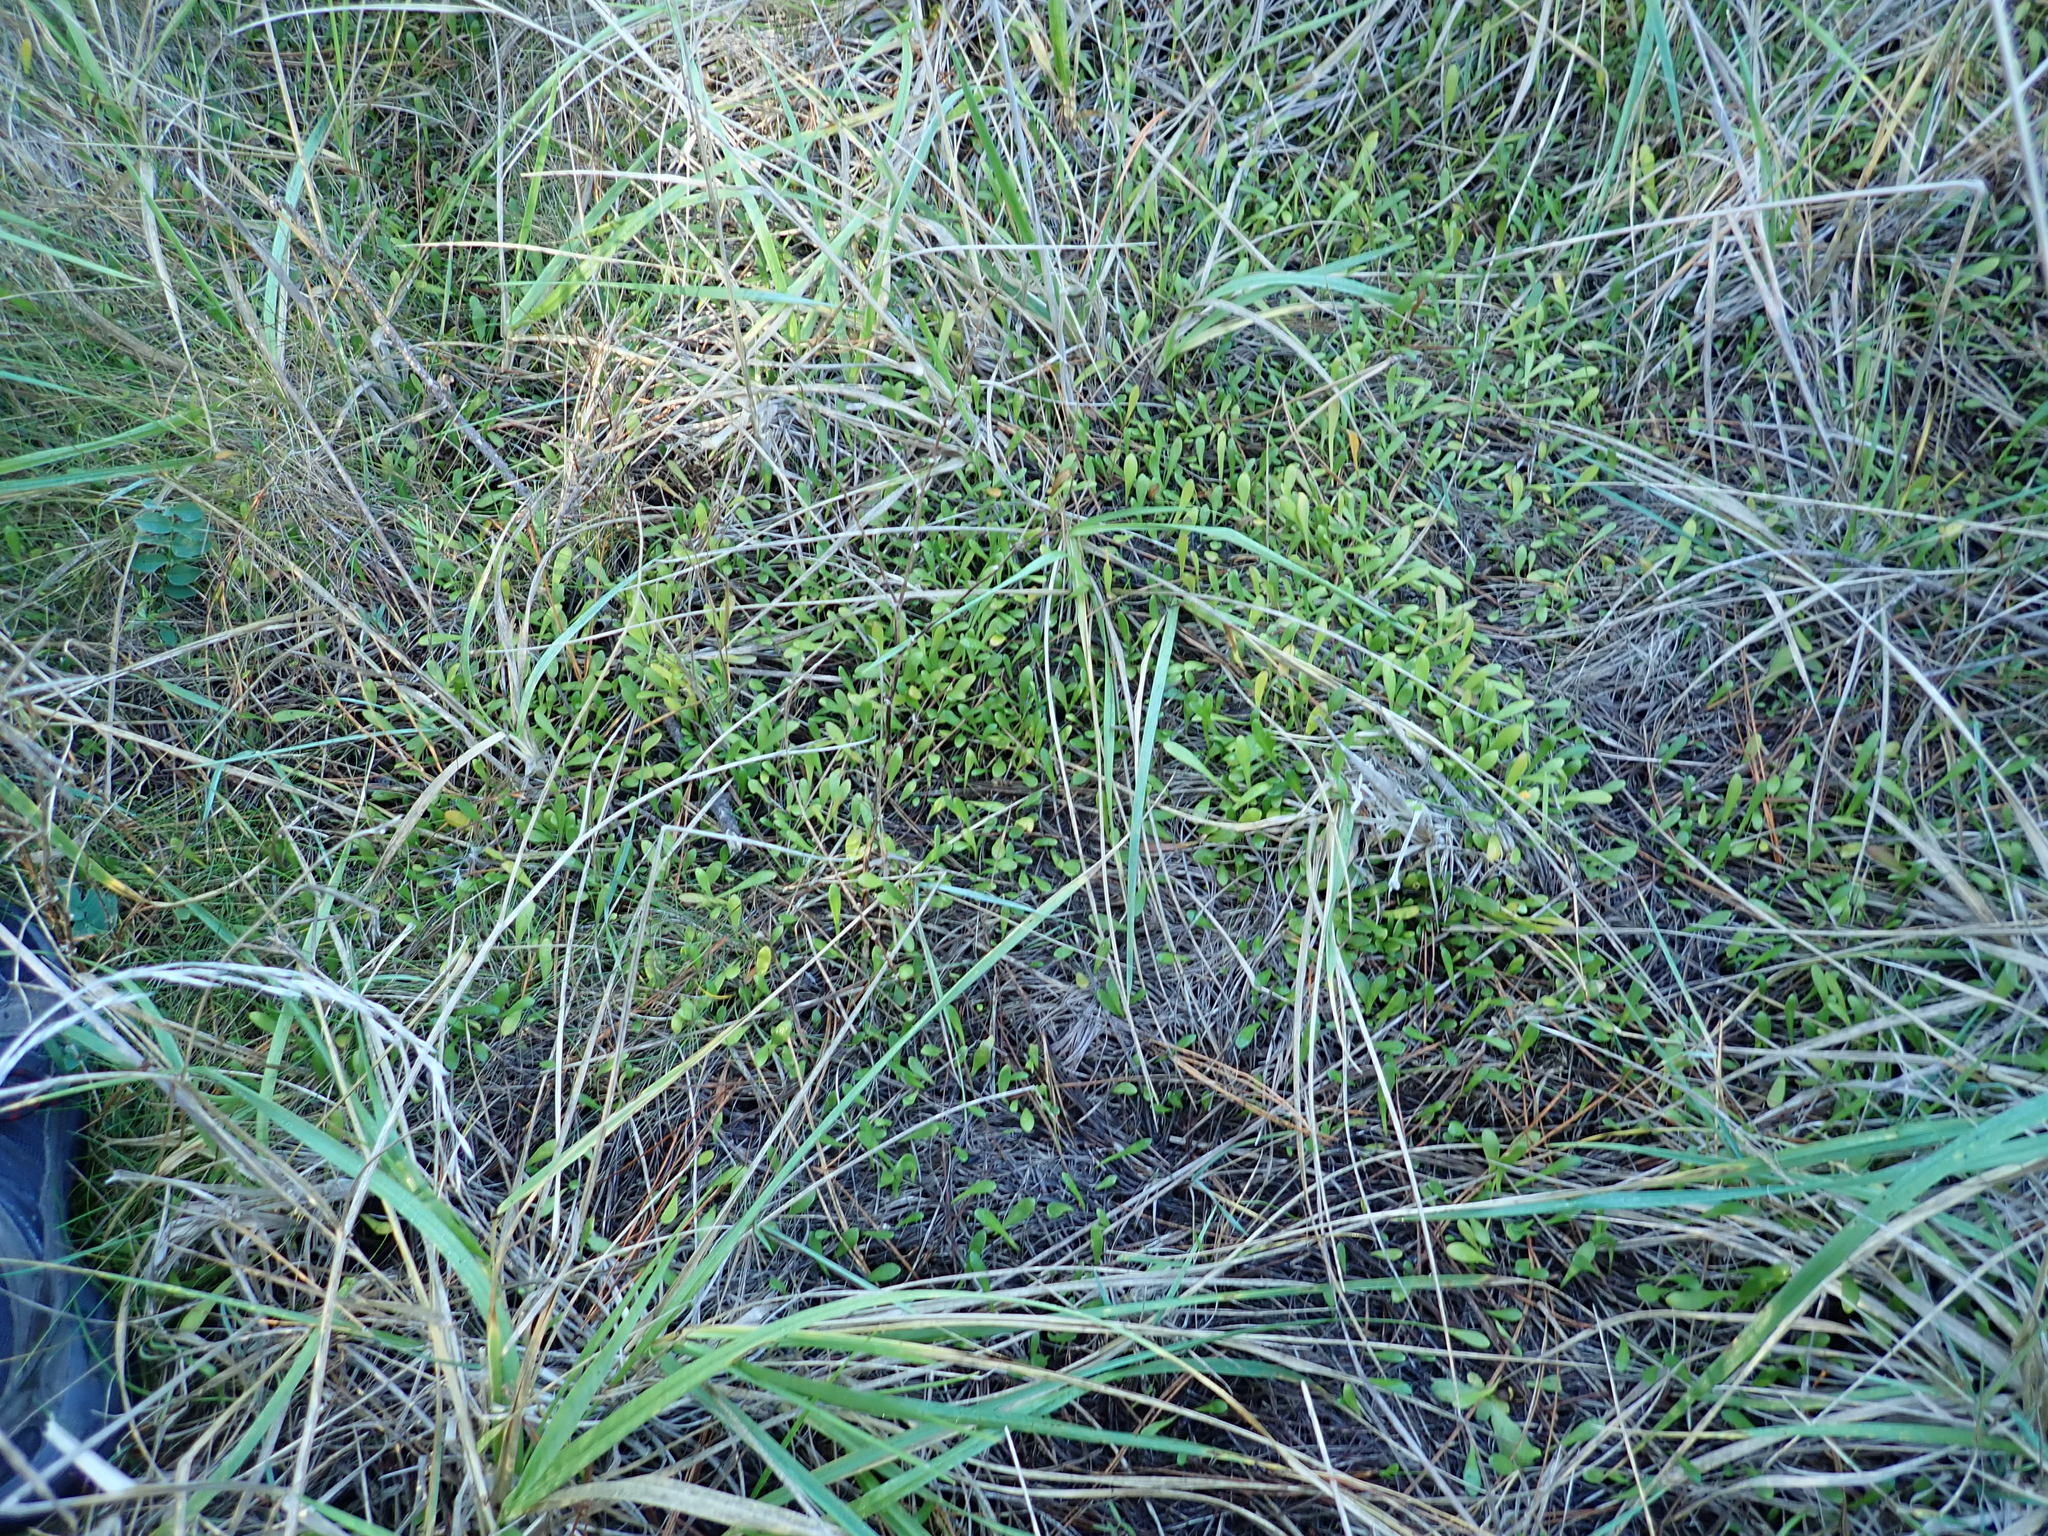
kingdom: Plantae
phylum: Tracheophyta
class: Magnoliopsida
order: Asterales
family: Goodeniaceae
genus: Goodenia
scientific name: Goodenia radicans
